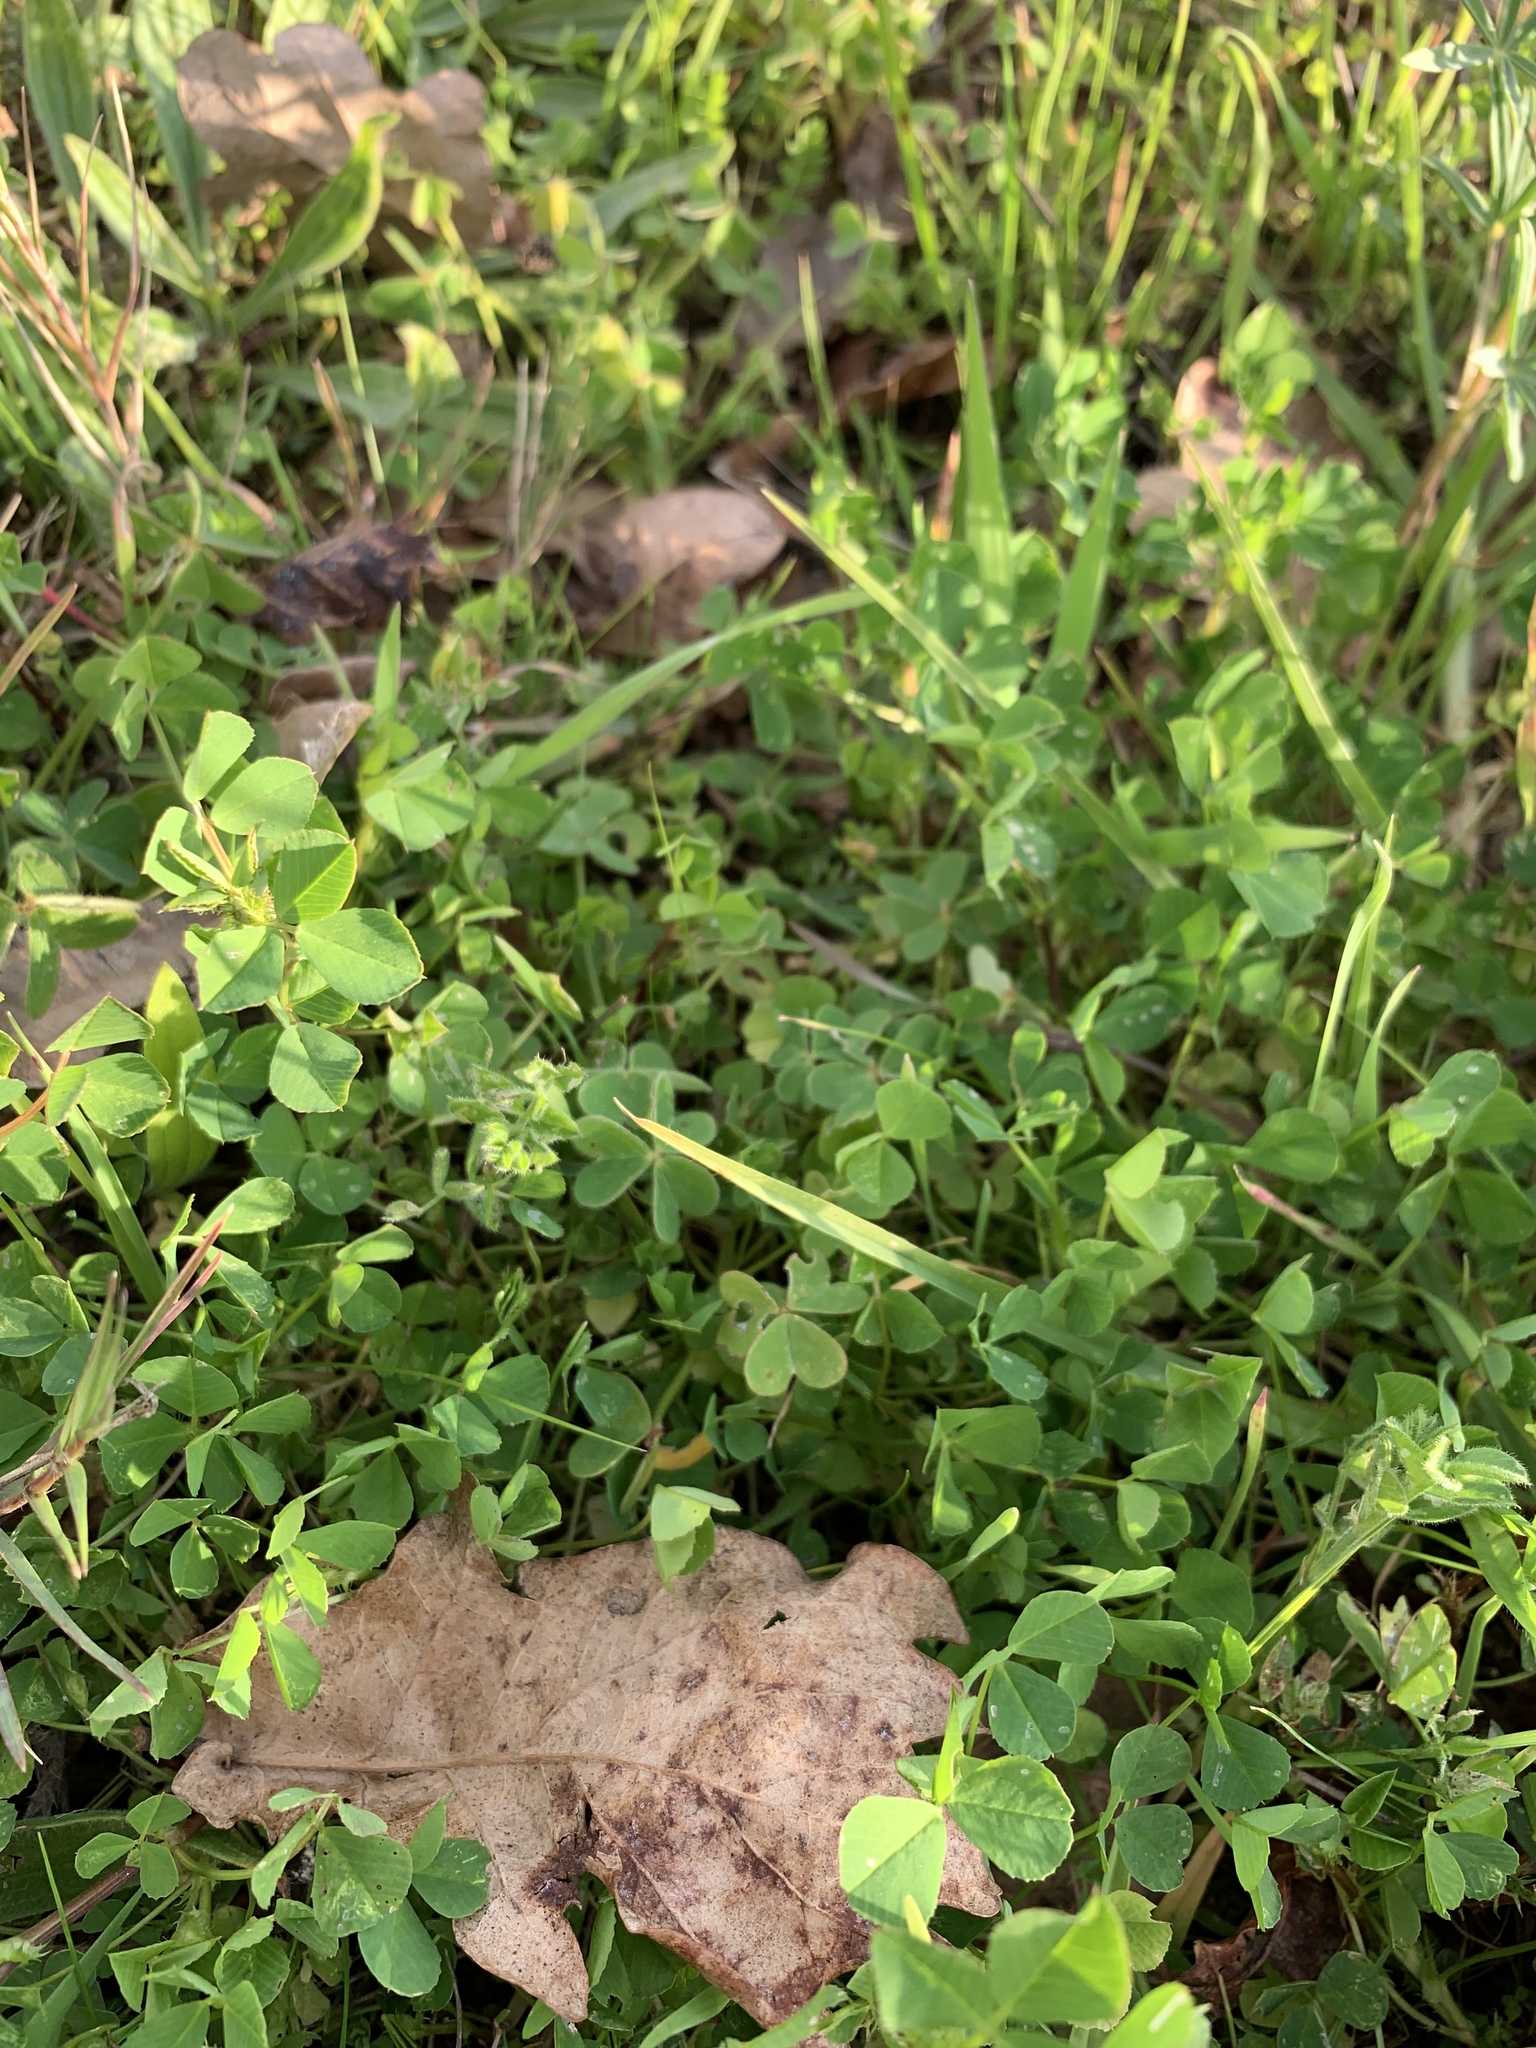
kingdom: Plantae
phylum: Tracheophyta
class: Magnoliopsida
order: Fabales
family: Fabaceae
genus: Medicago
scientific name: Medicago polymorpha
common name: Burclover
